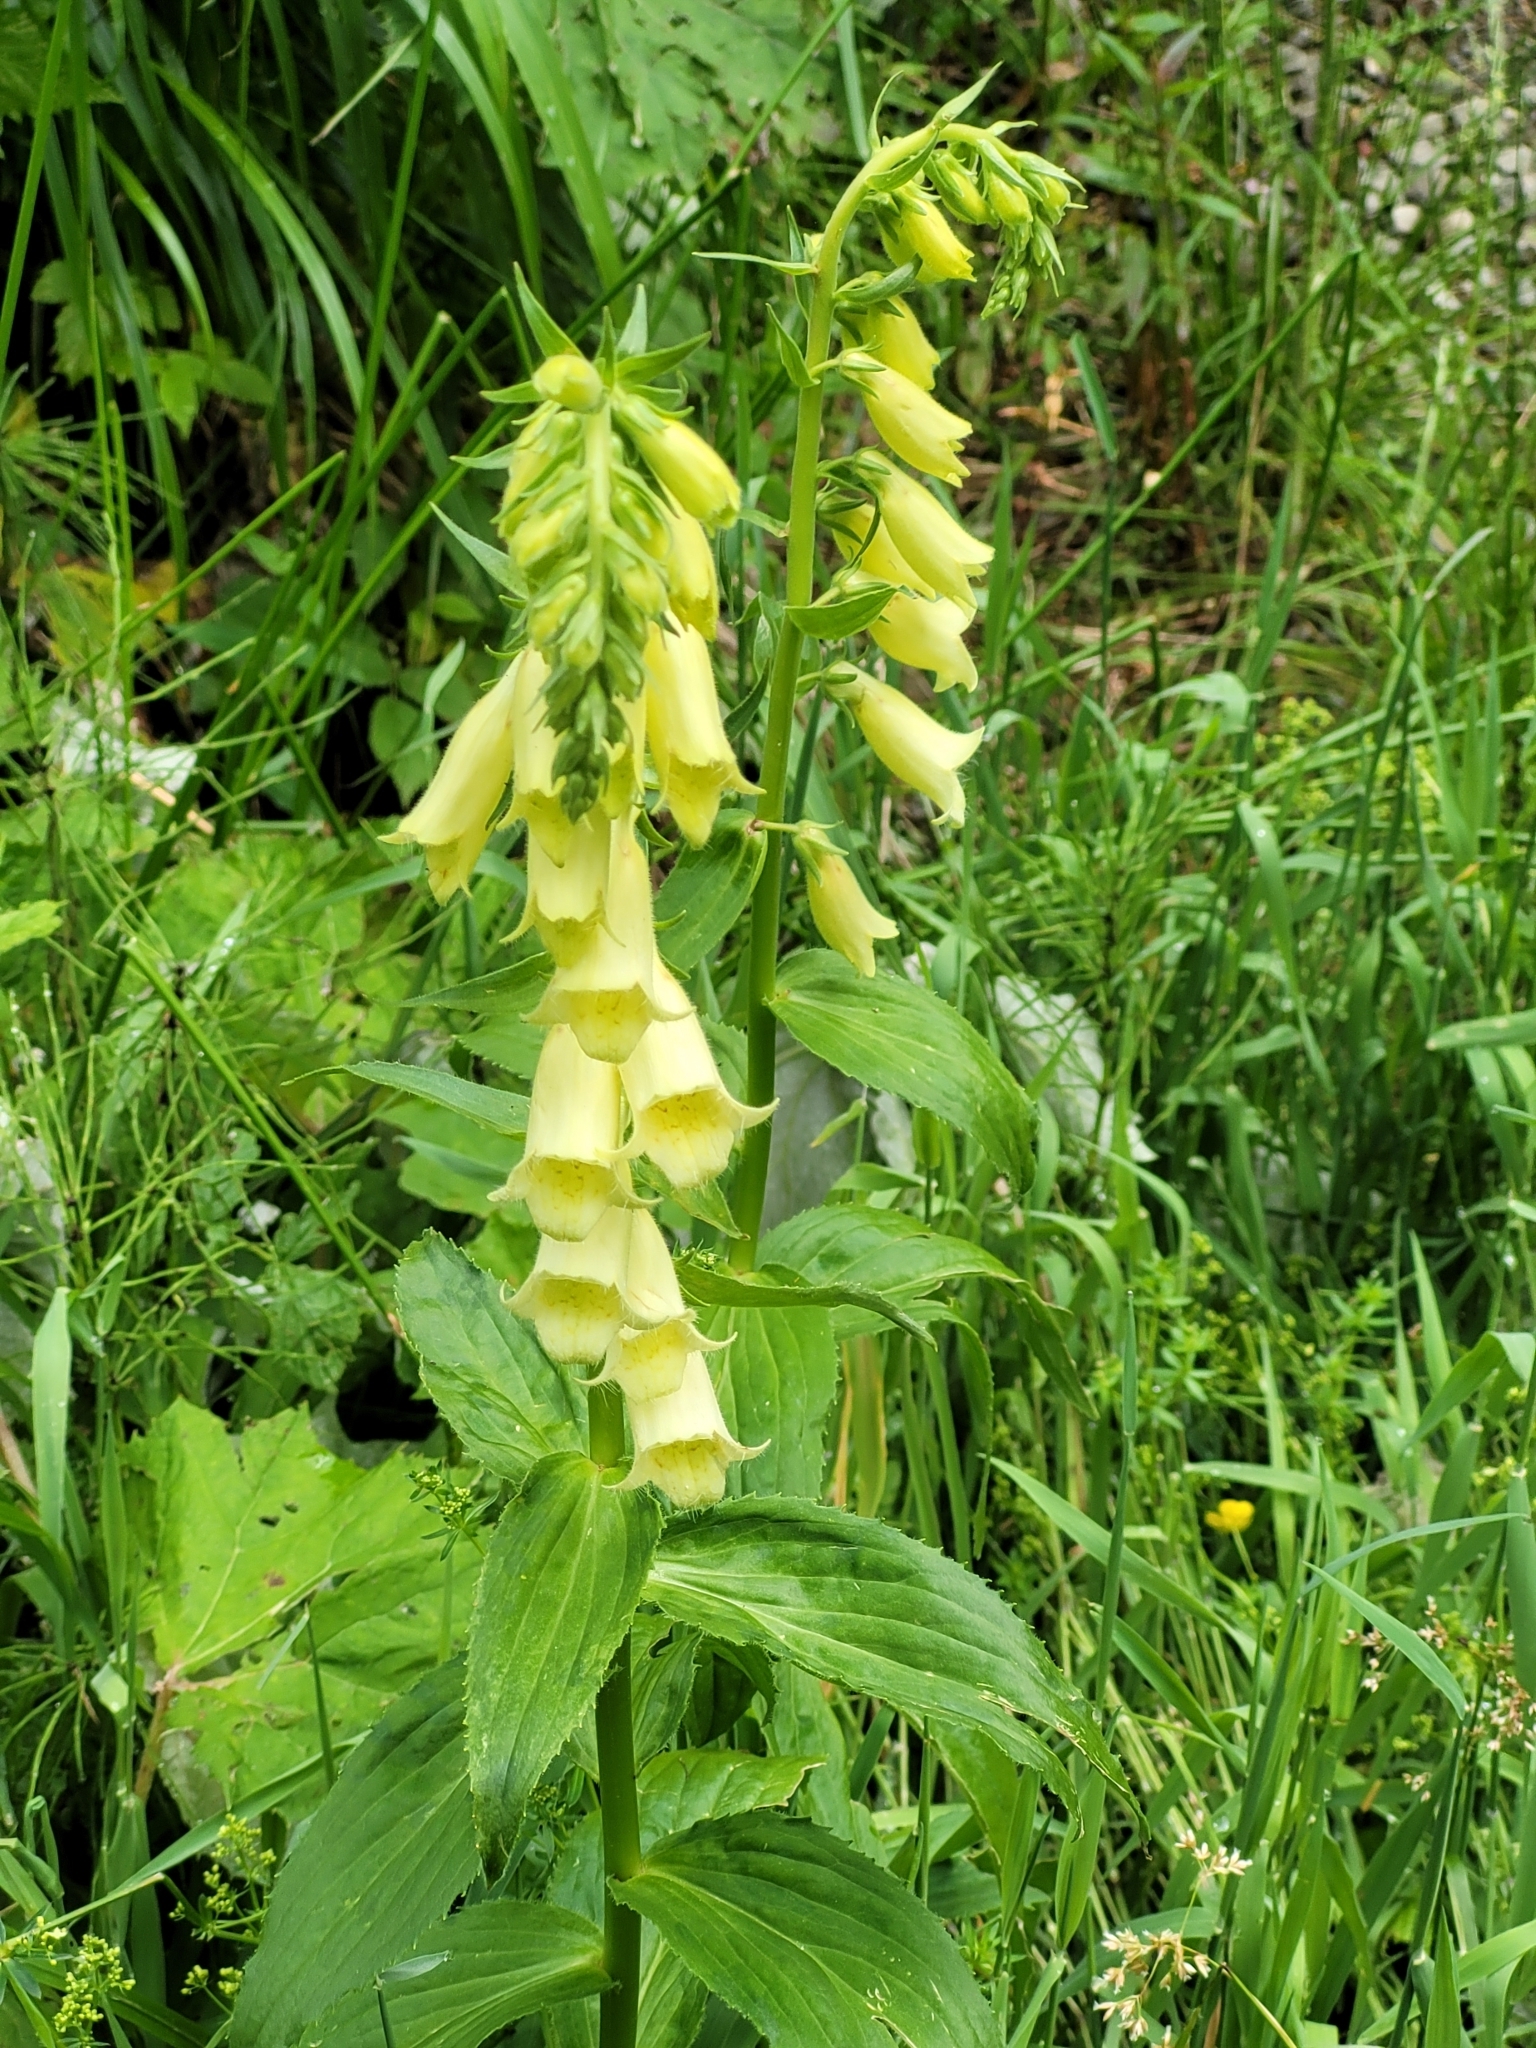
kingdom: Plantae
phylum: Tracheophyta
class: Magnoliopsida
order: Lamiales
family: Plantaginaceae
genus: Digitalis
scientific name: Digitalis grandiflora
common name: Yellow foxglove
